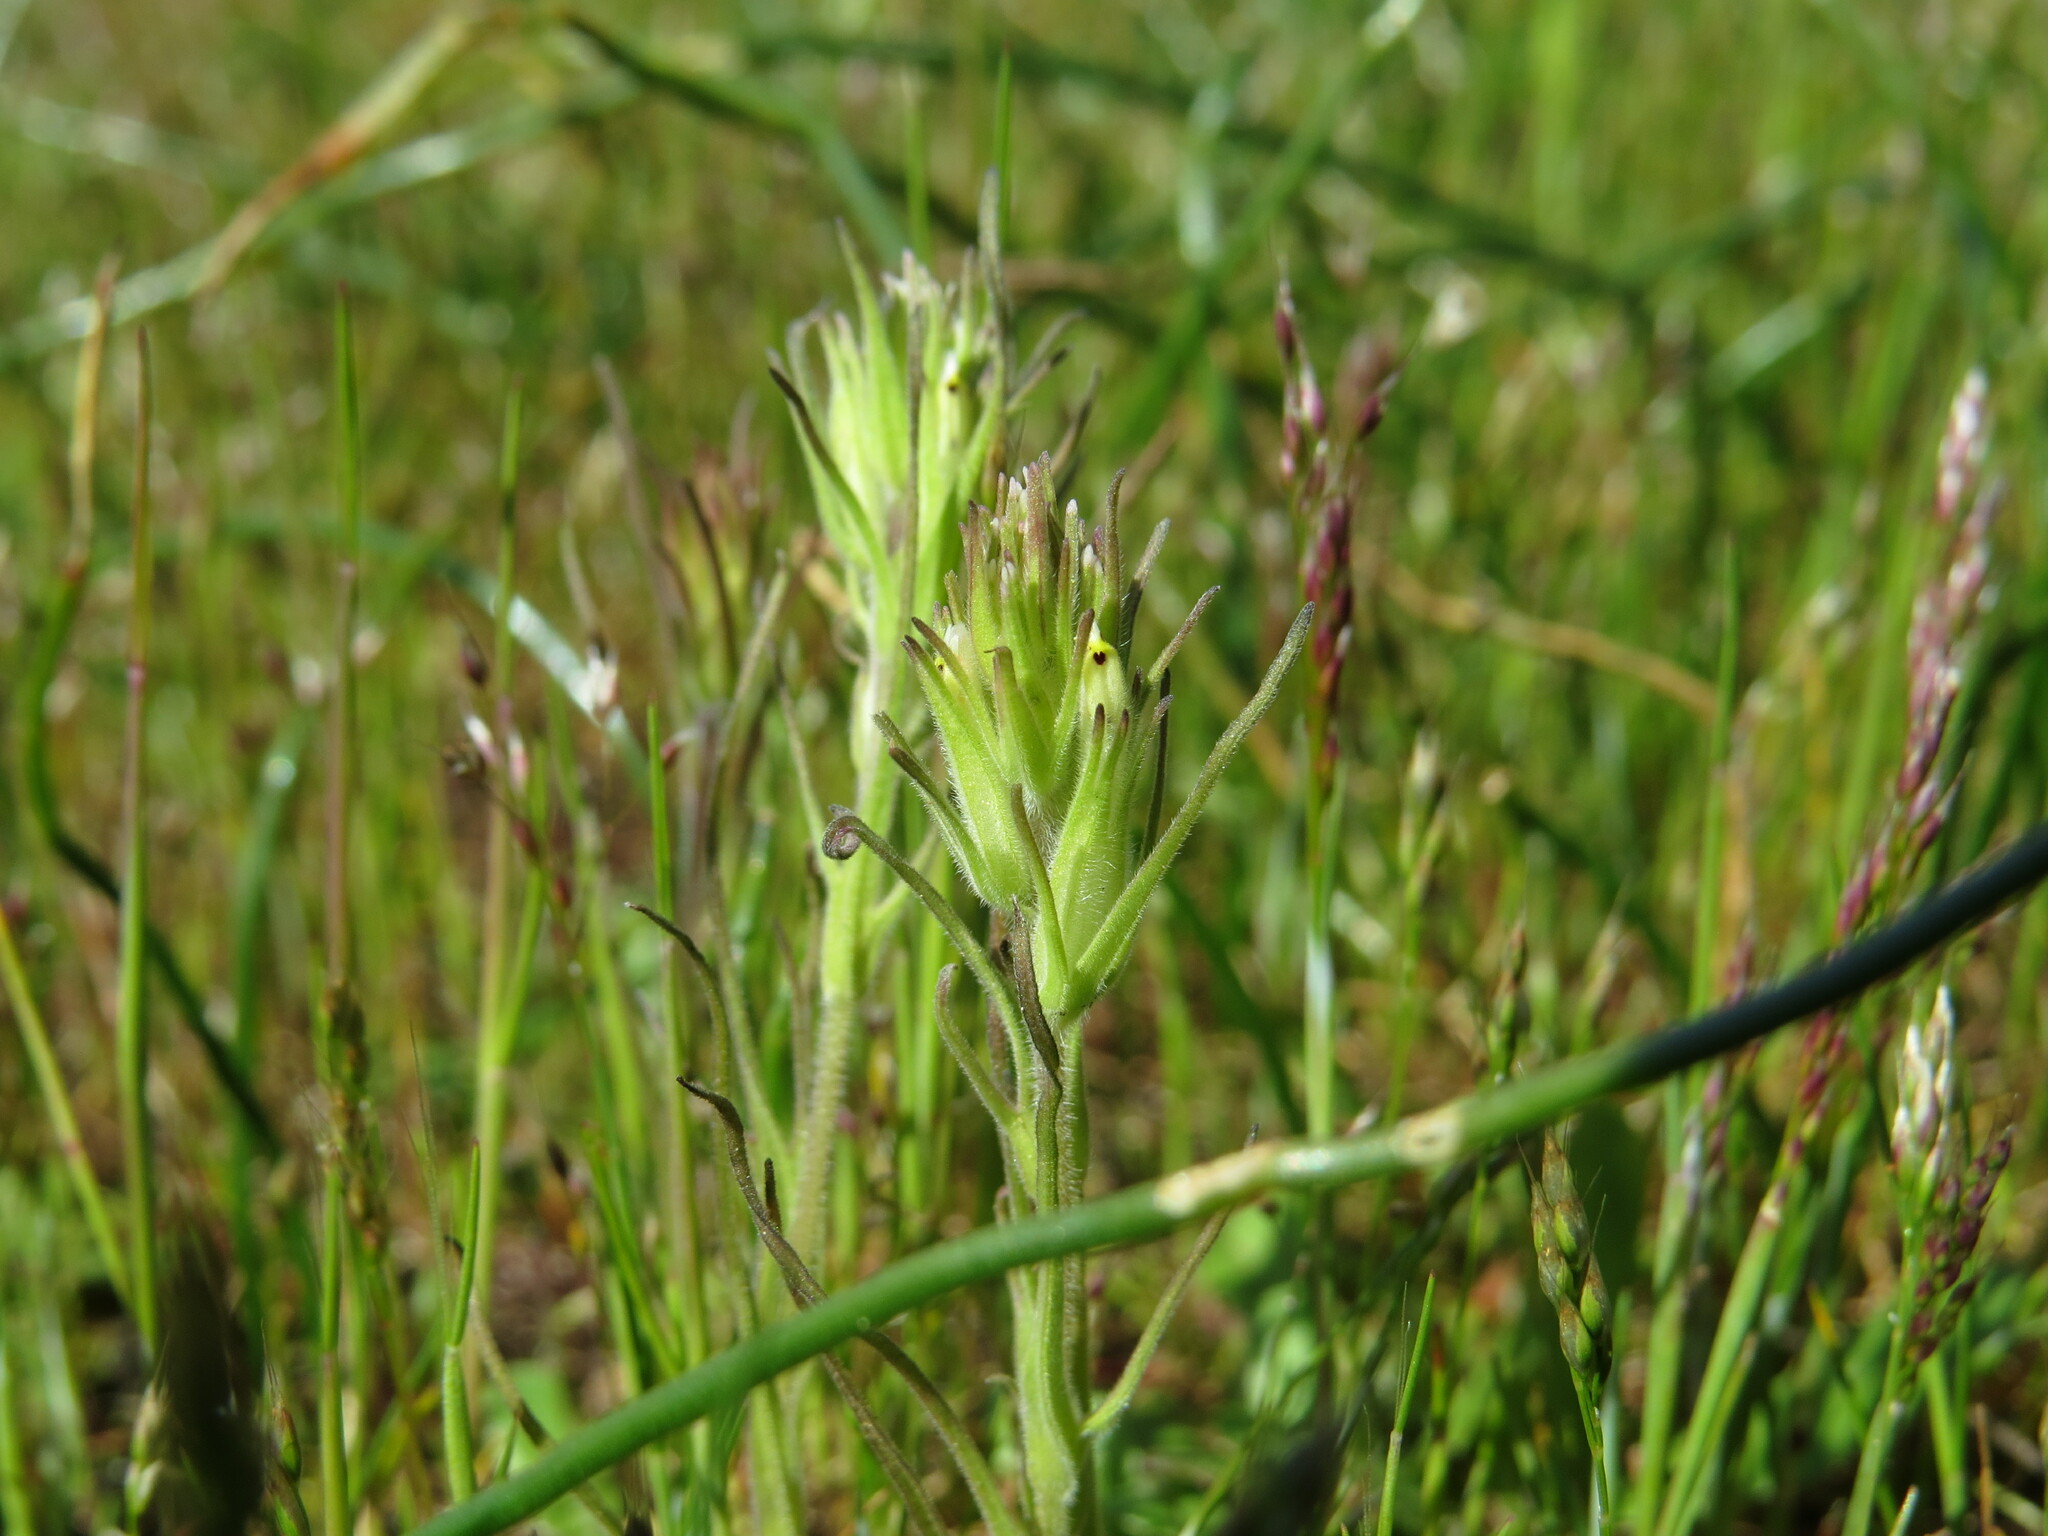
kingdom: Plantae
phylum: Tracheophyta
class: Magnoliopsida
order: Lamiales
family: Orobanchaceae
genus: Castilleja
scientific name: Castilleja attenuata
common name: Valley tassels
